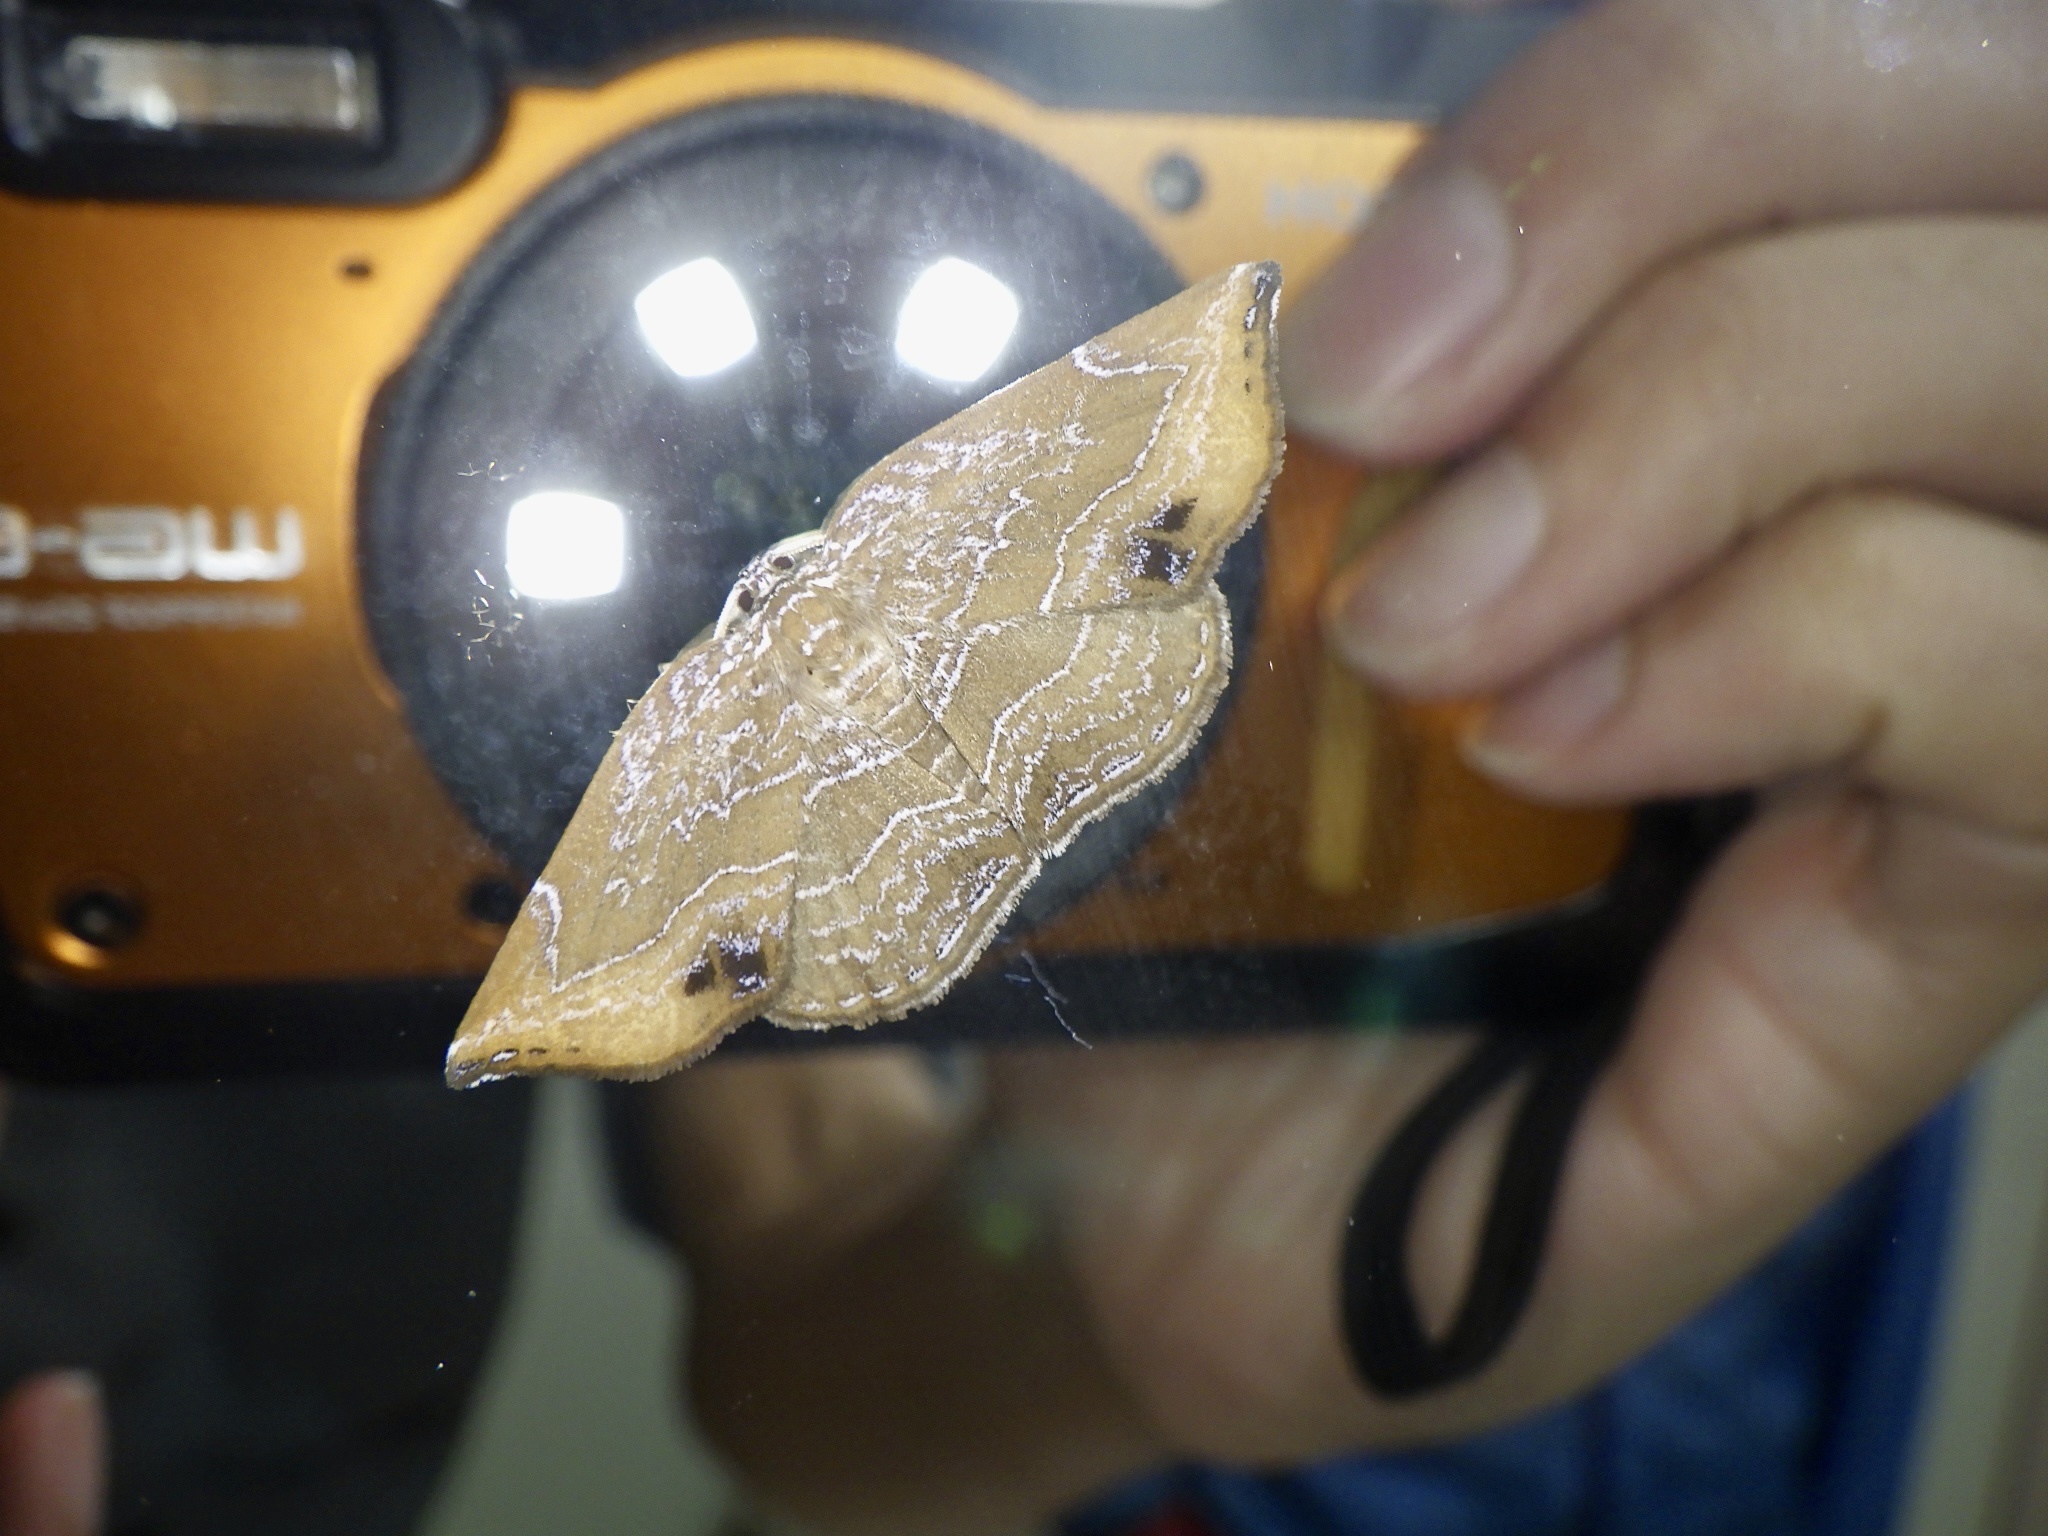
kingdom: Animalia
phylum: Arthropoda
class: Insecta
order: Lepidoptera
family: Drepanidae
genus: Mimozethes
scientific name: Mimozethes argentilinearia
